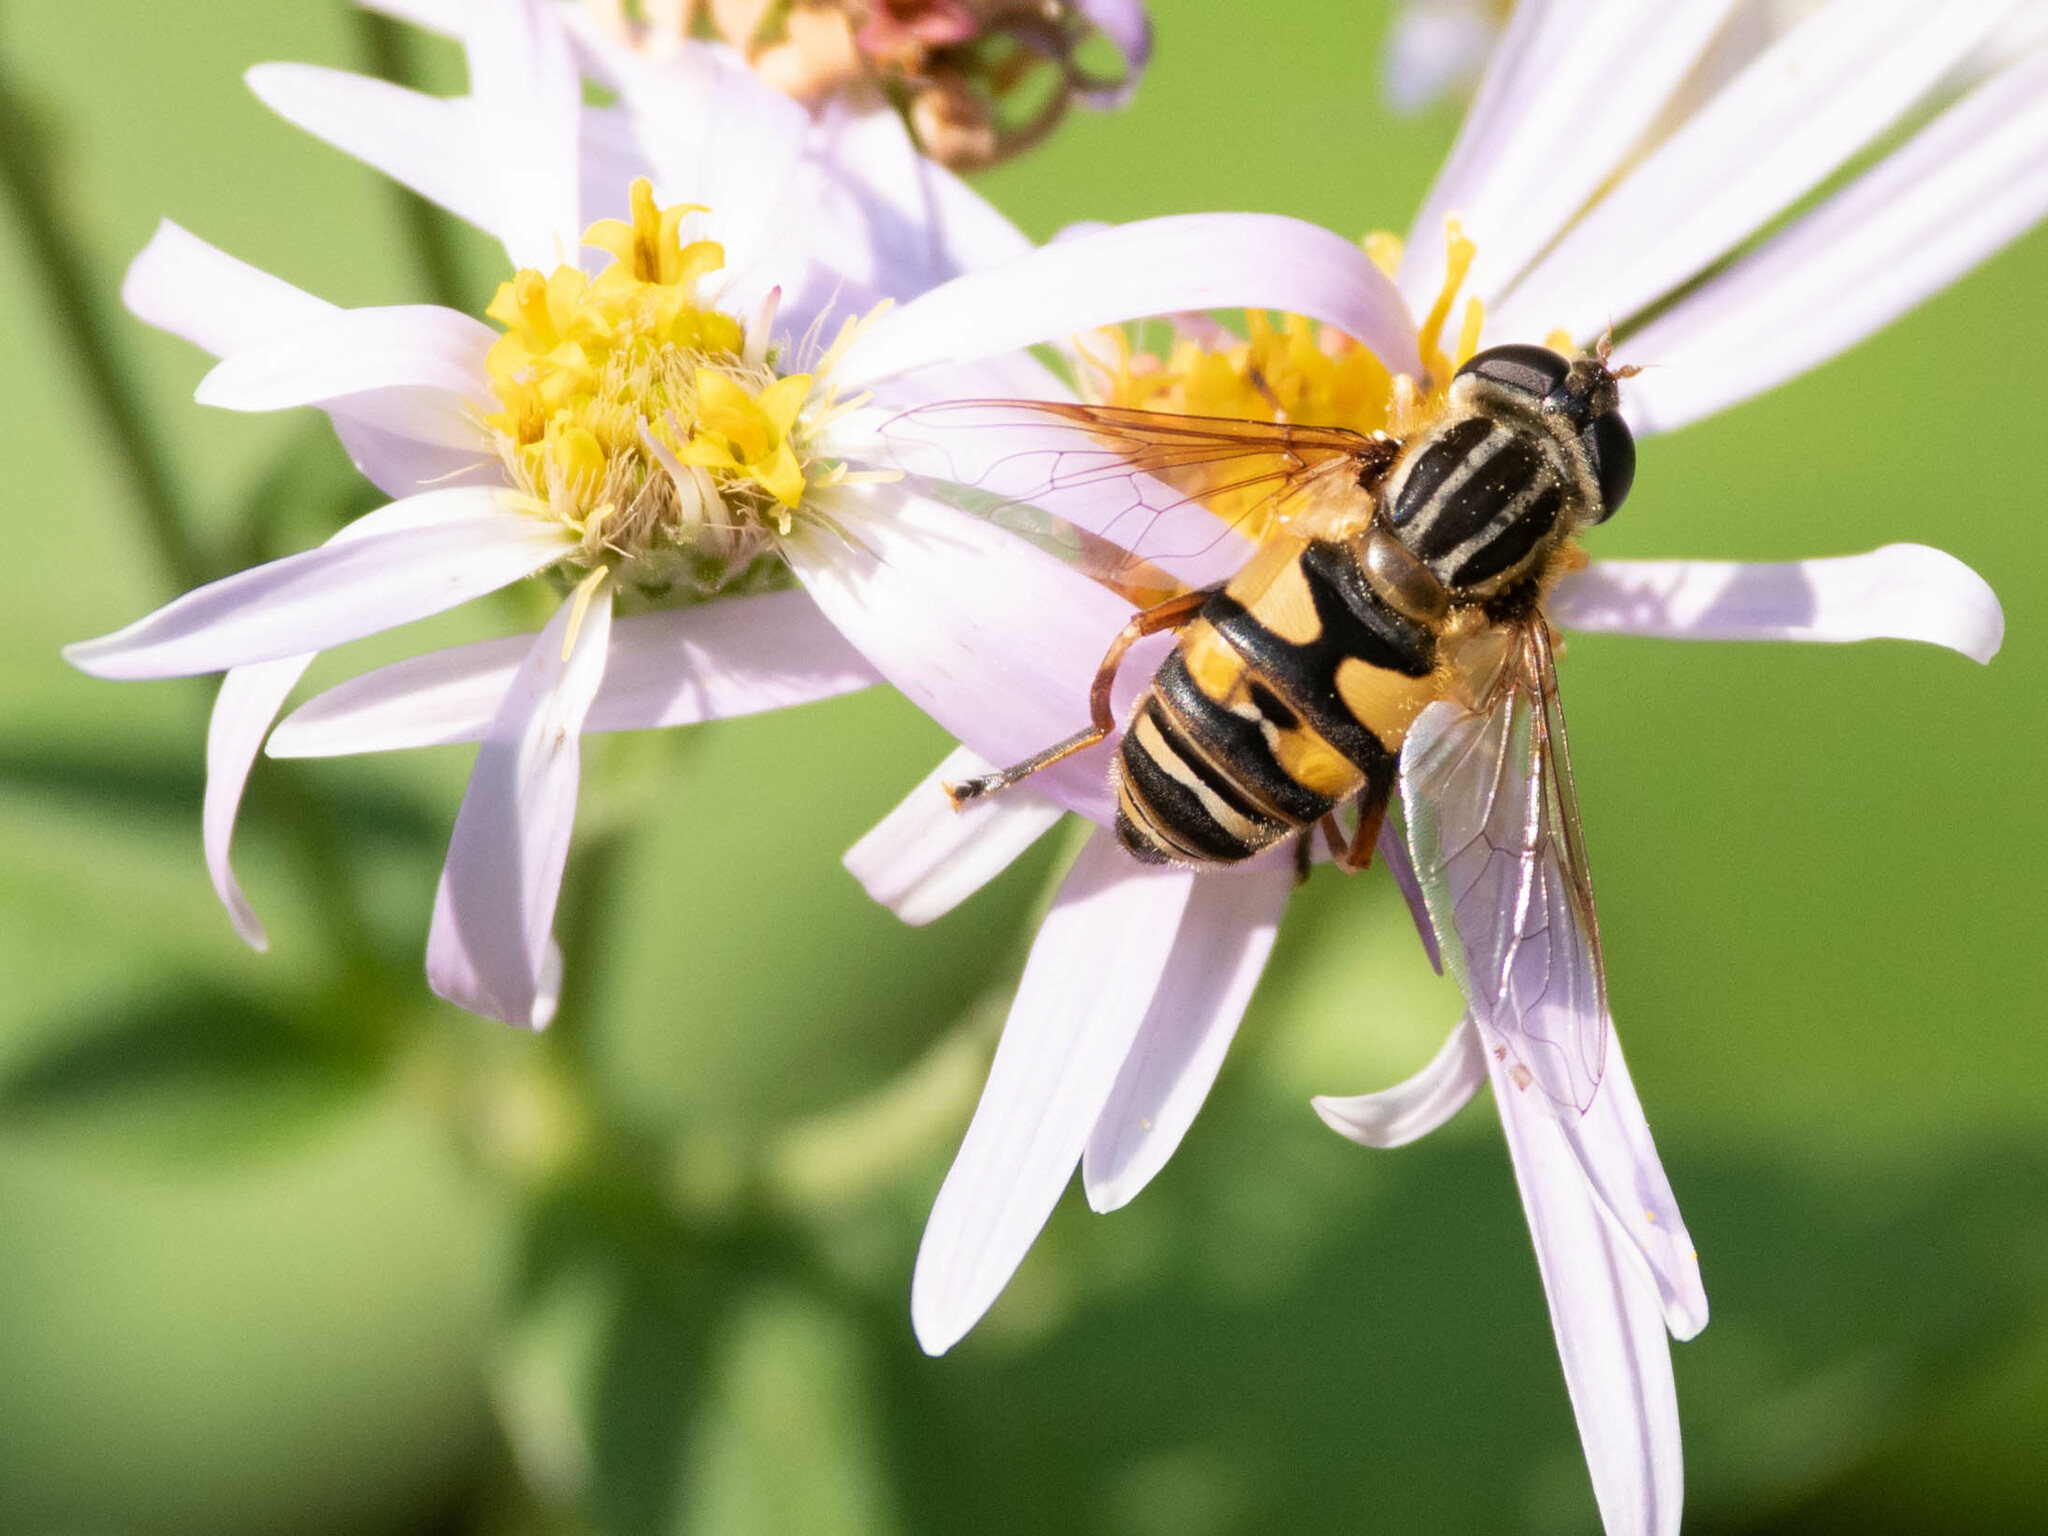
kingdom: Animalia
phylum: Arthropoda
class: Insecta
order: Diptera
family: Syrphidae
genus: Helophilus
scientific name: Helophilus fasciatus
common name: Narrow-headed marsh fly
